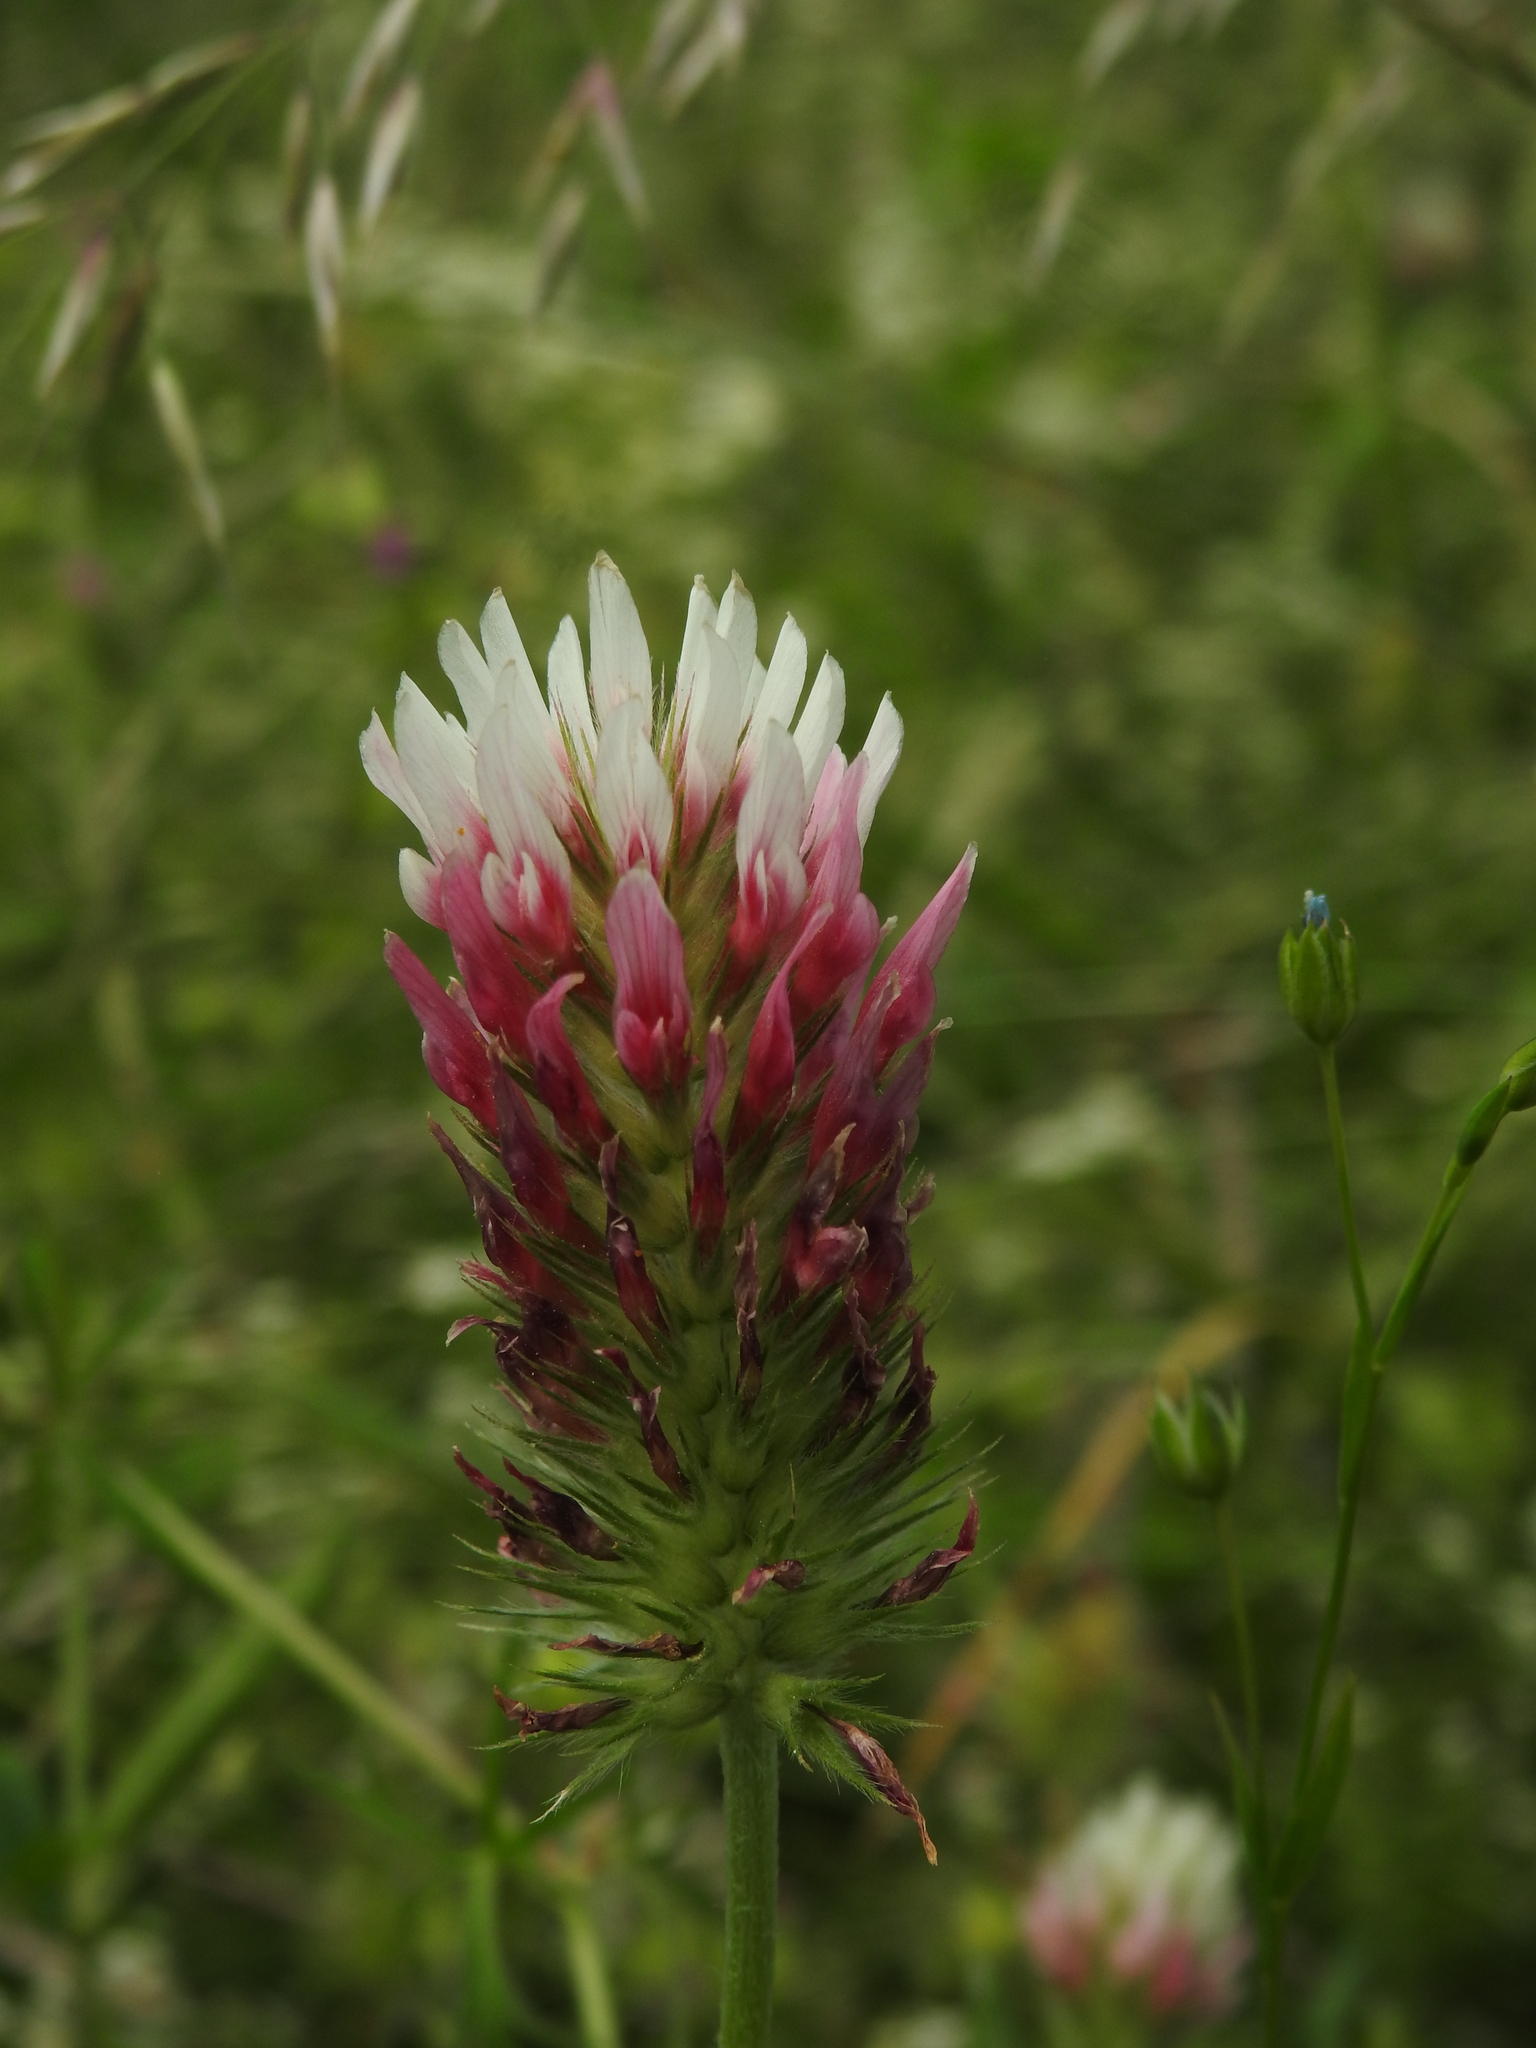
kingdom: Plantae
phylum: Tracheophyta
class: Magnoliopsida
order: Fabales
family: Fabaceae
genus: Trifolium
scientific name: Trifolium incarnatum
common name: Crimson clover
